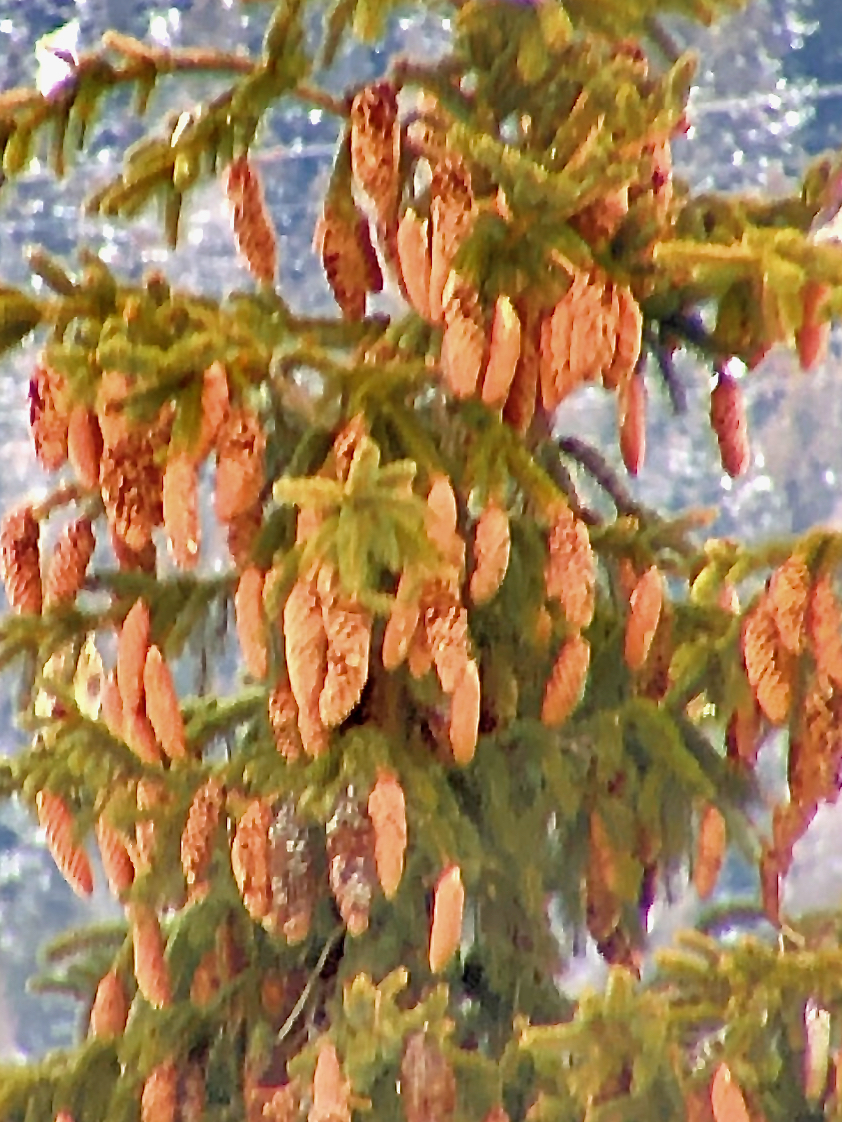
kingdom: Plantae
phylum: Tracheophyta
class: Pinopsida
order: Pinales
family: Pinaceae
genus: Picea
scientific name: Picea abies
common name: Norway spruce
